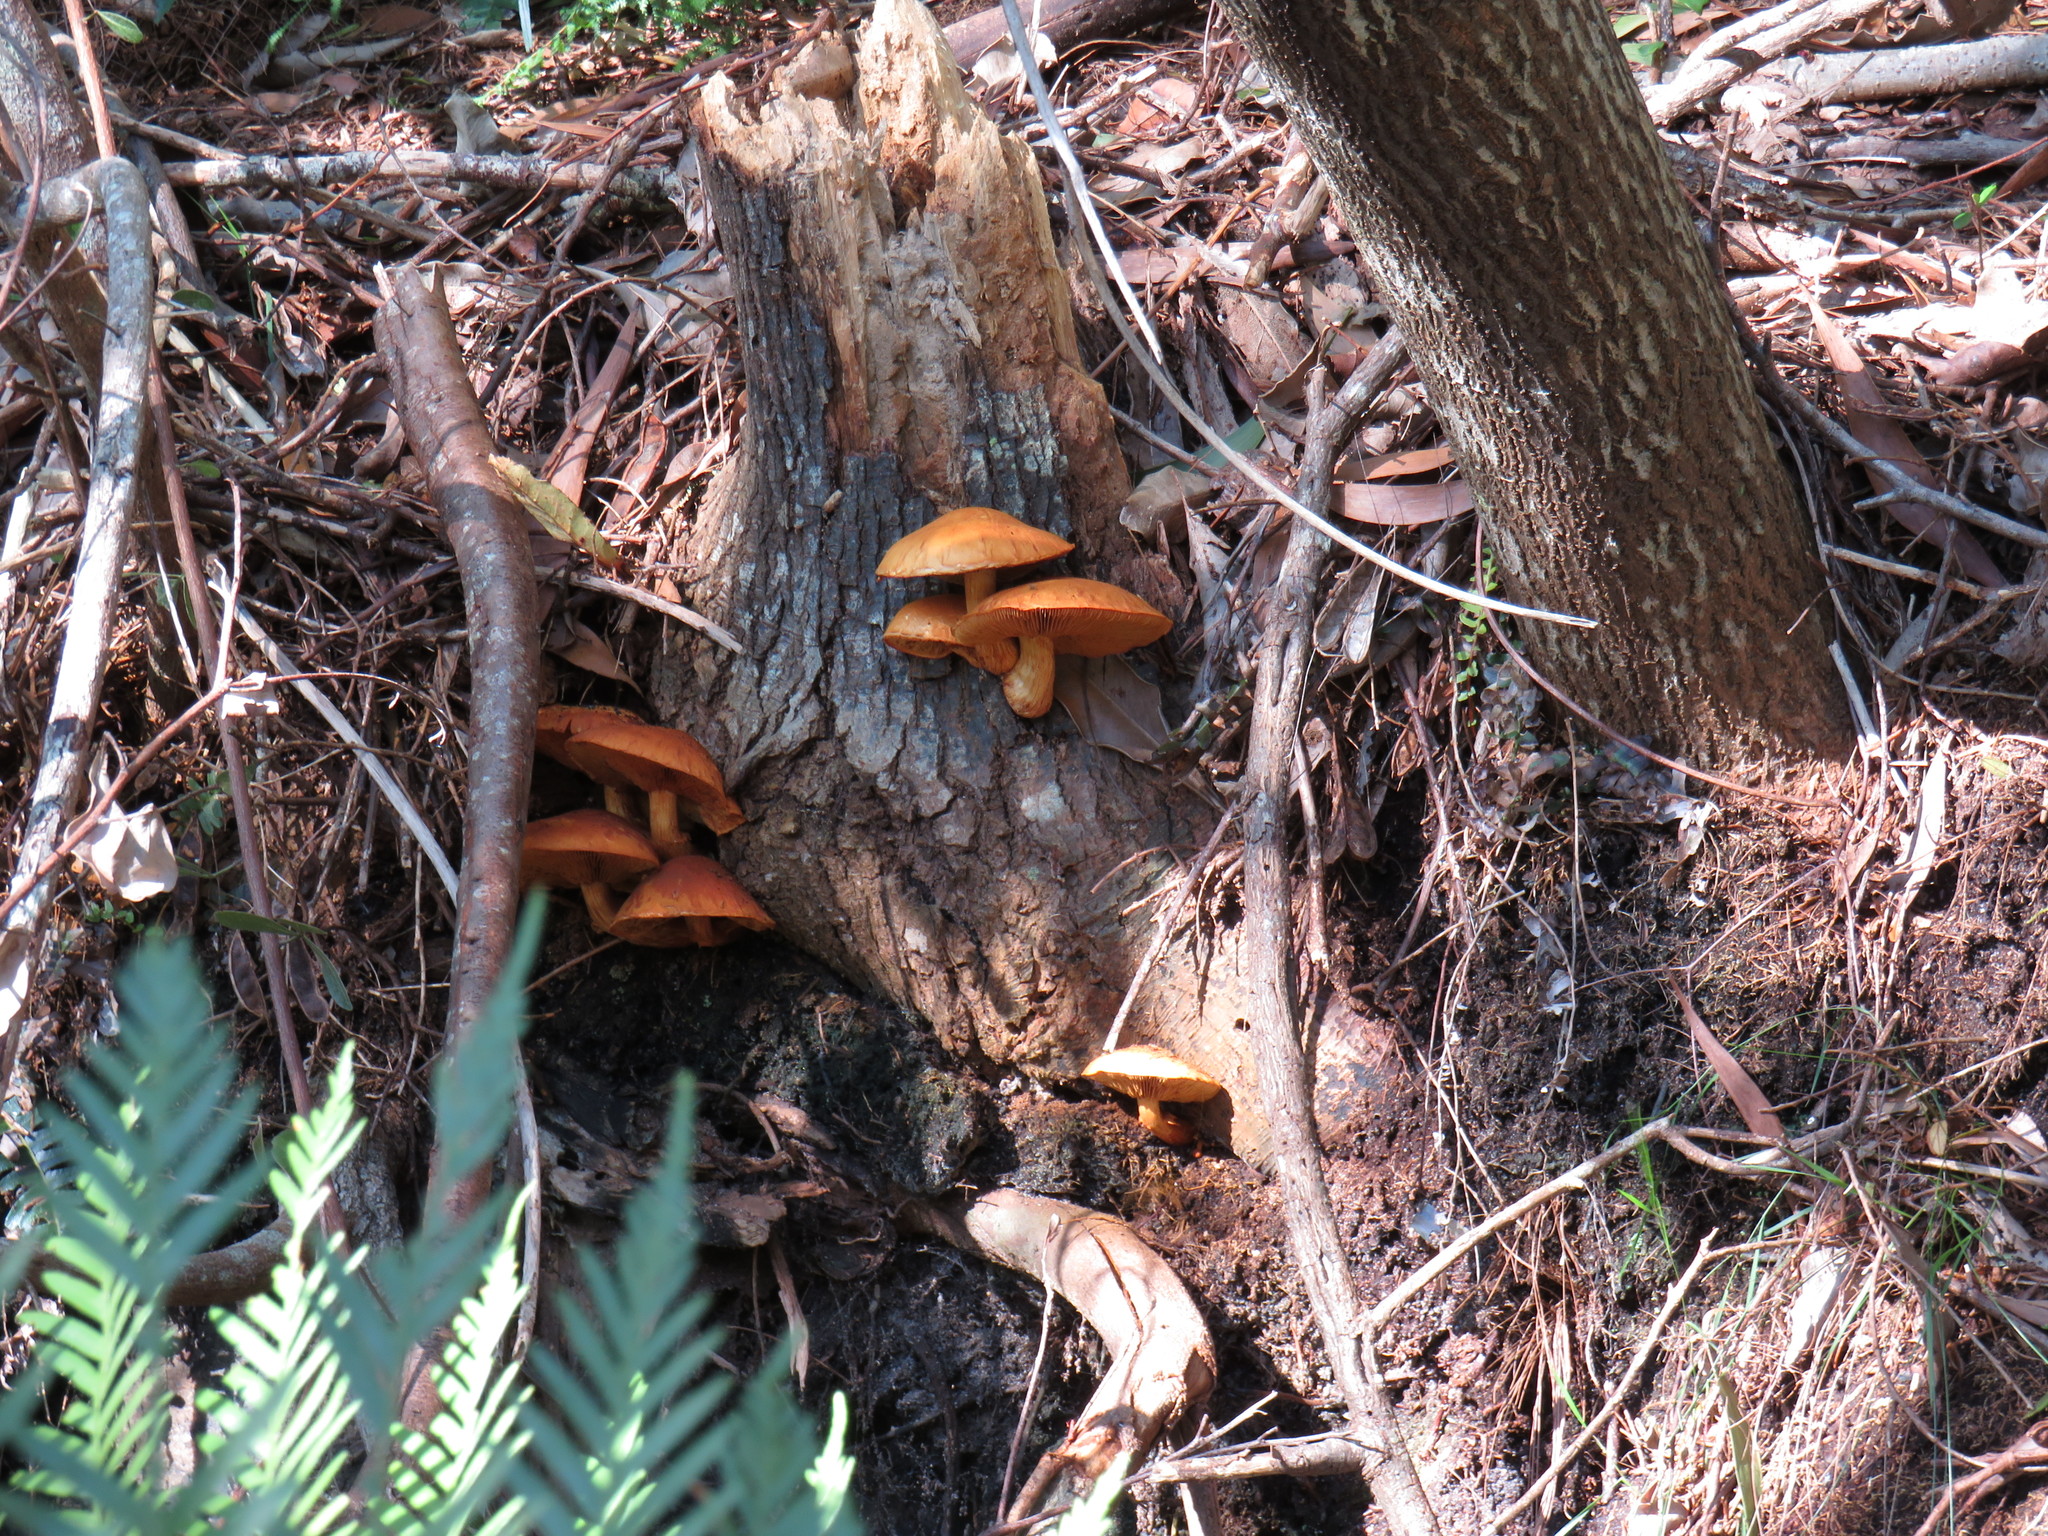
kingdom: Fungi
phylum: Basidiomycota
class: Agaricomycetes
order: Agaricales
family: Hymenogastraceae
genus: Gymnopilus
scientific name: Gymnopilus junonius
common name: Spectacular rustgill
